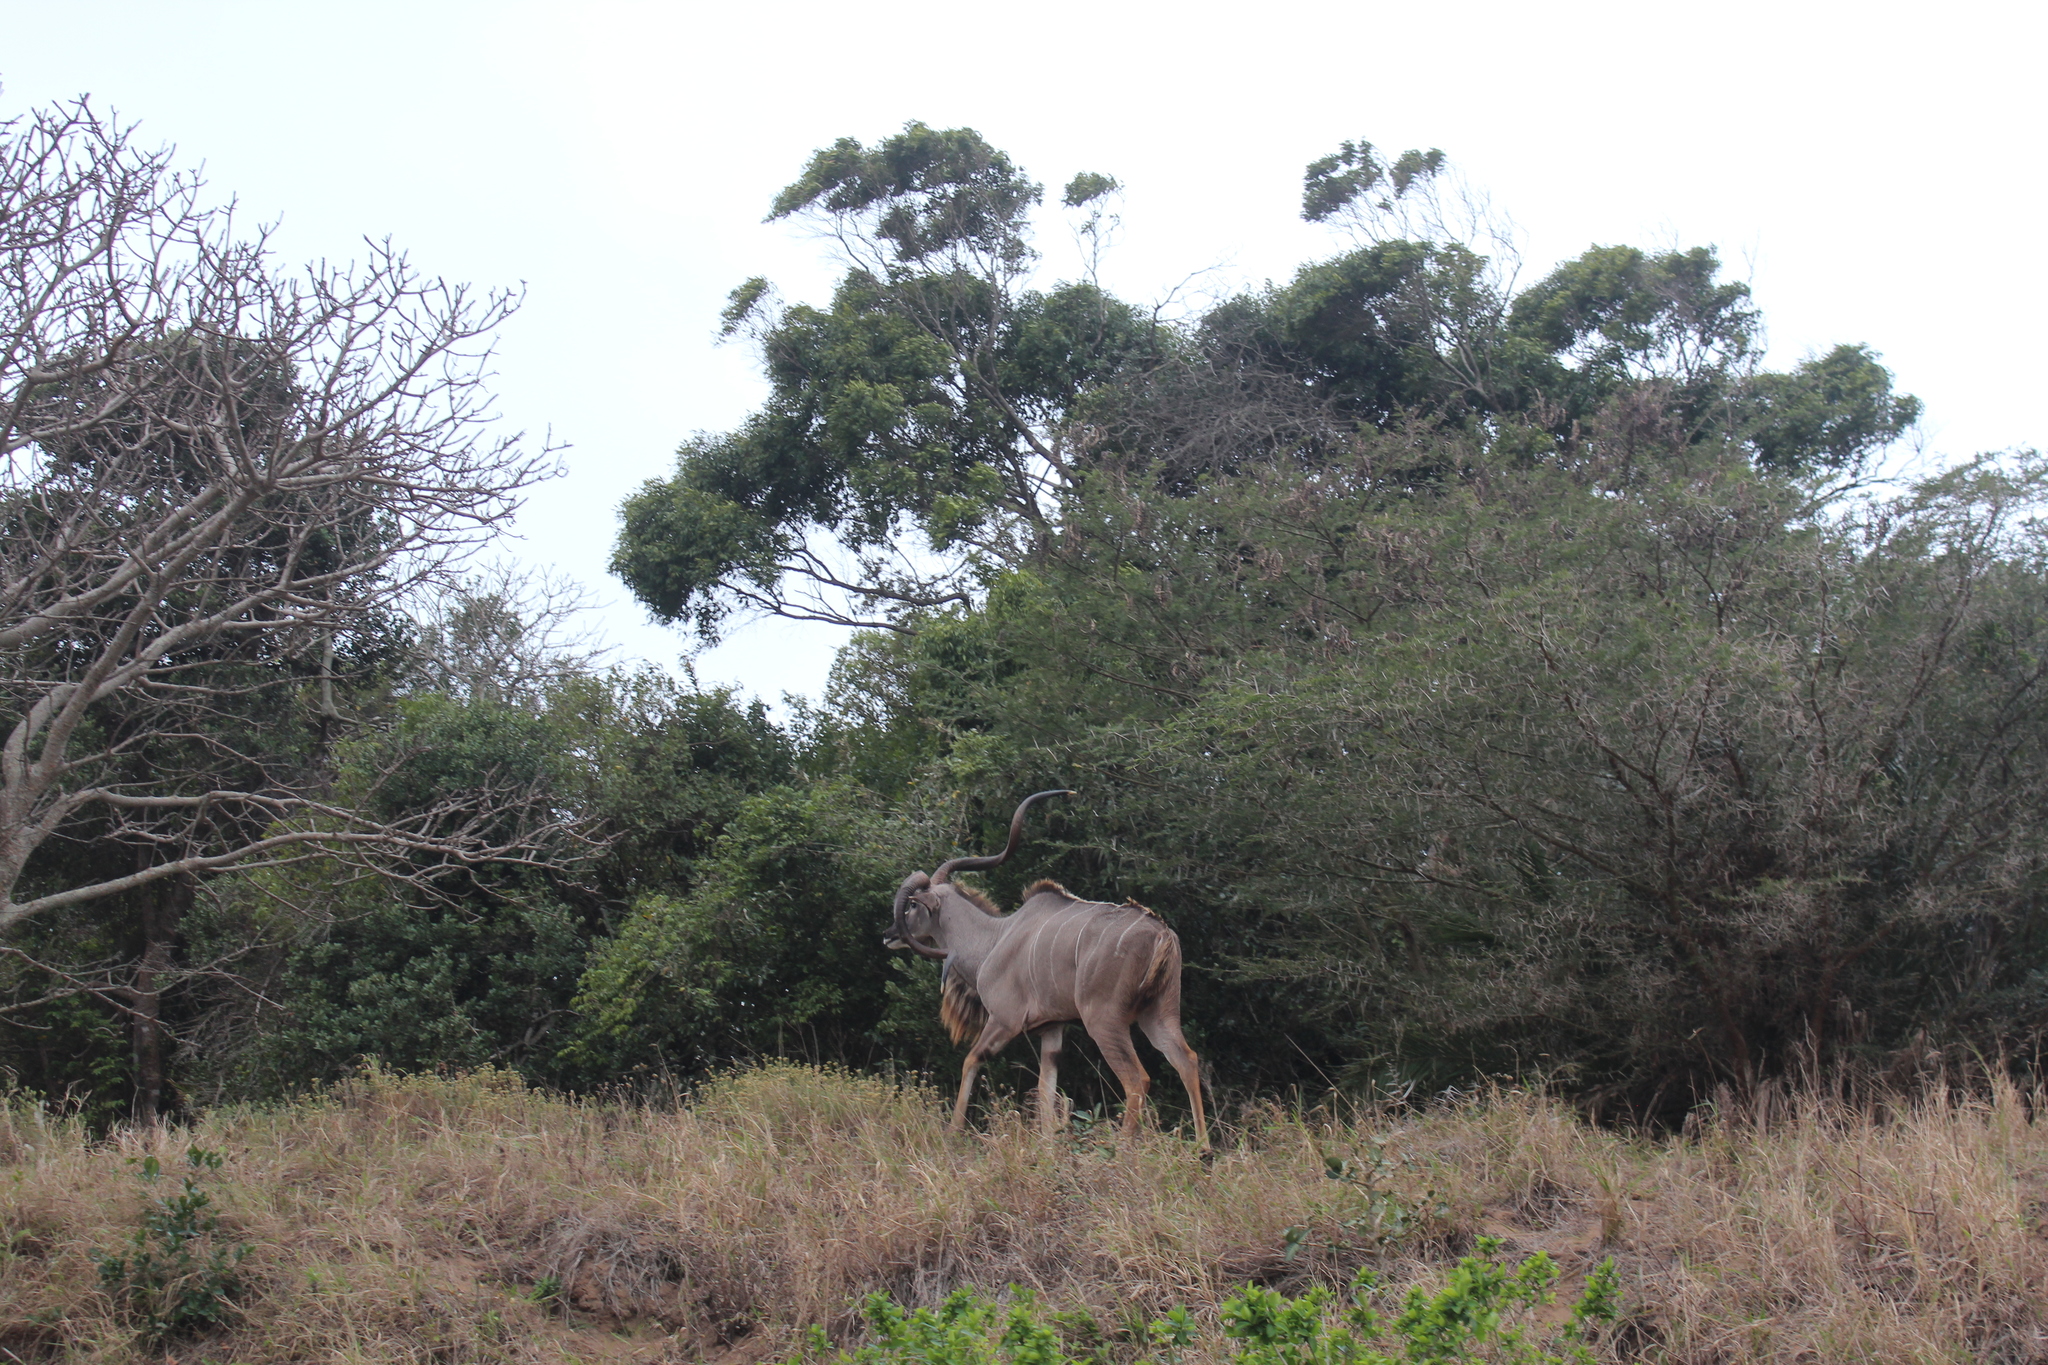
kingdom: Animalia
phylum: Chordata
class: Mammalia
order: Artiodactyla
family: Bovidae
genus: Tragelaphus
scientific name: Tragelaphus strepsiceros
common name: Greater kudu
